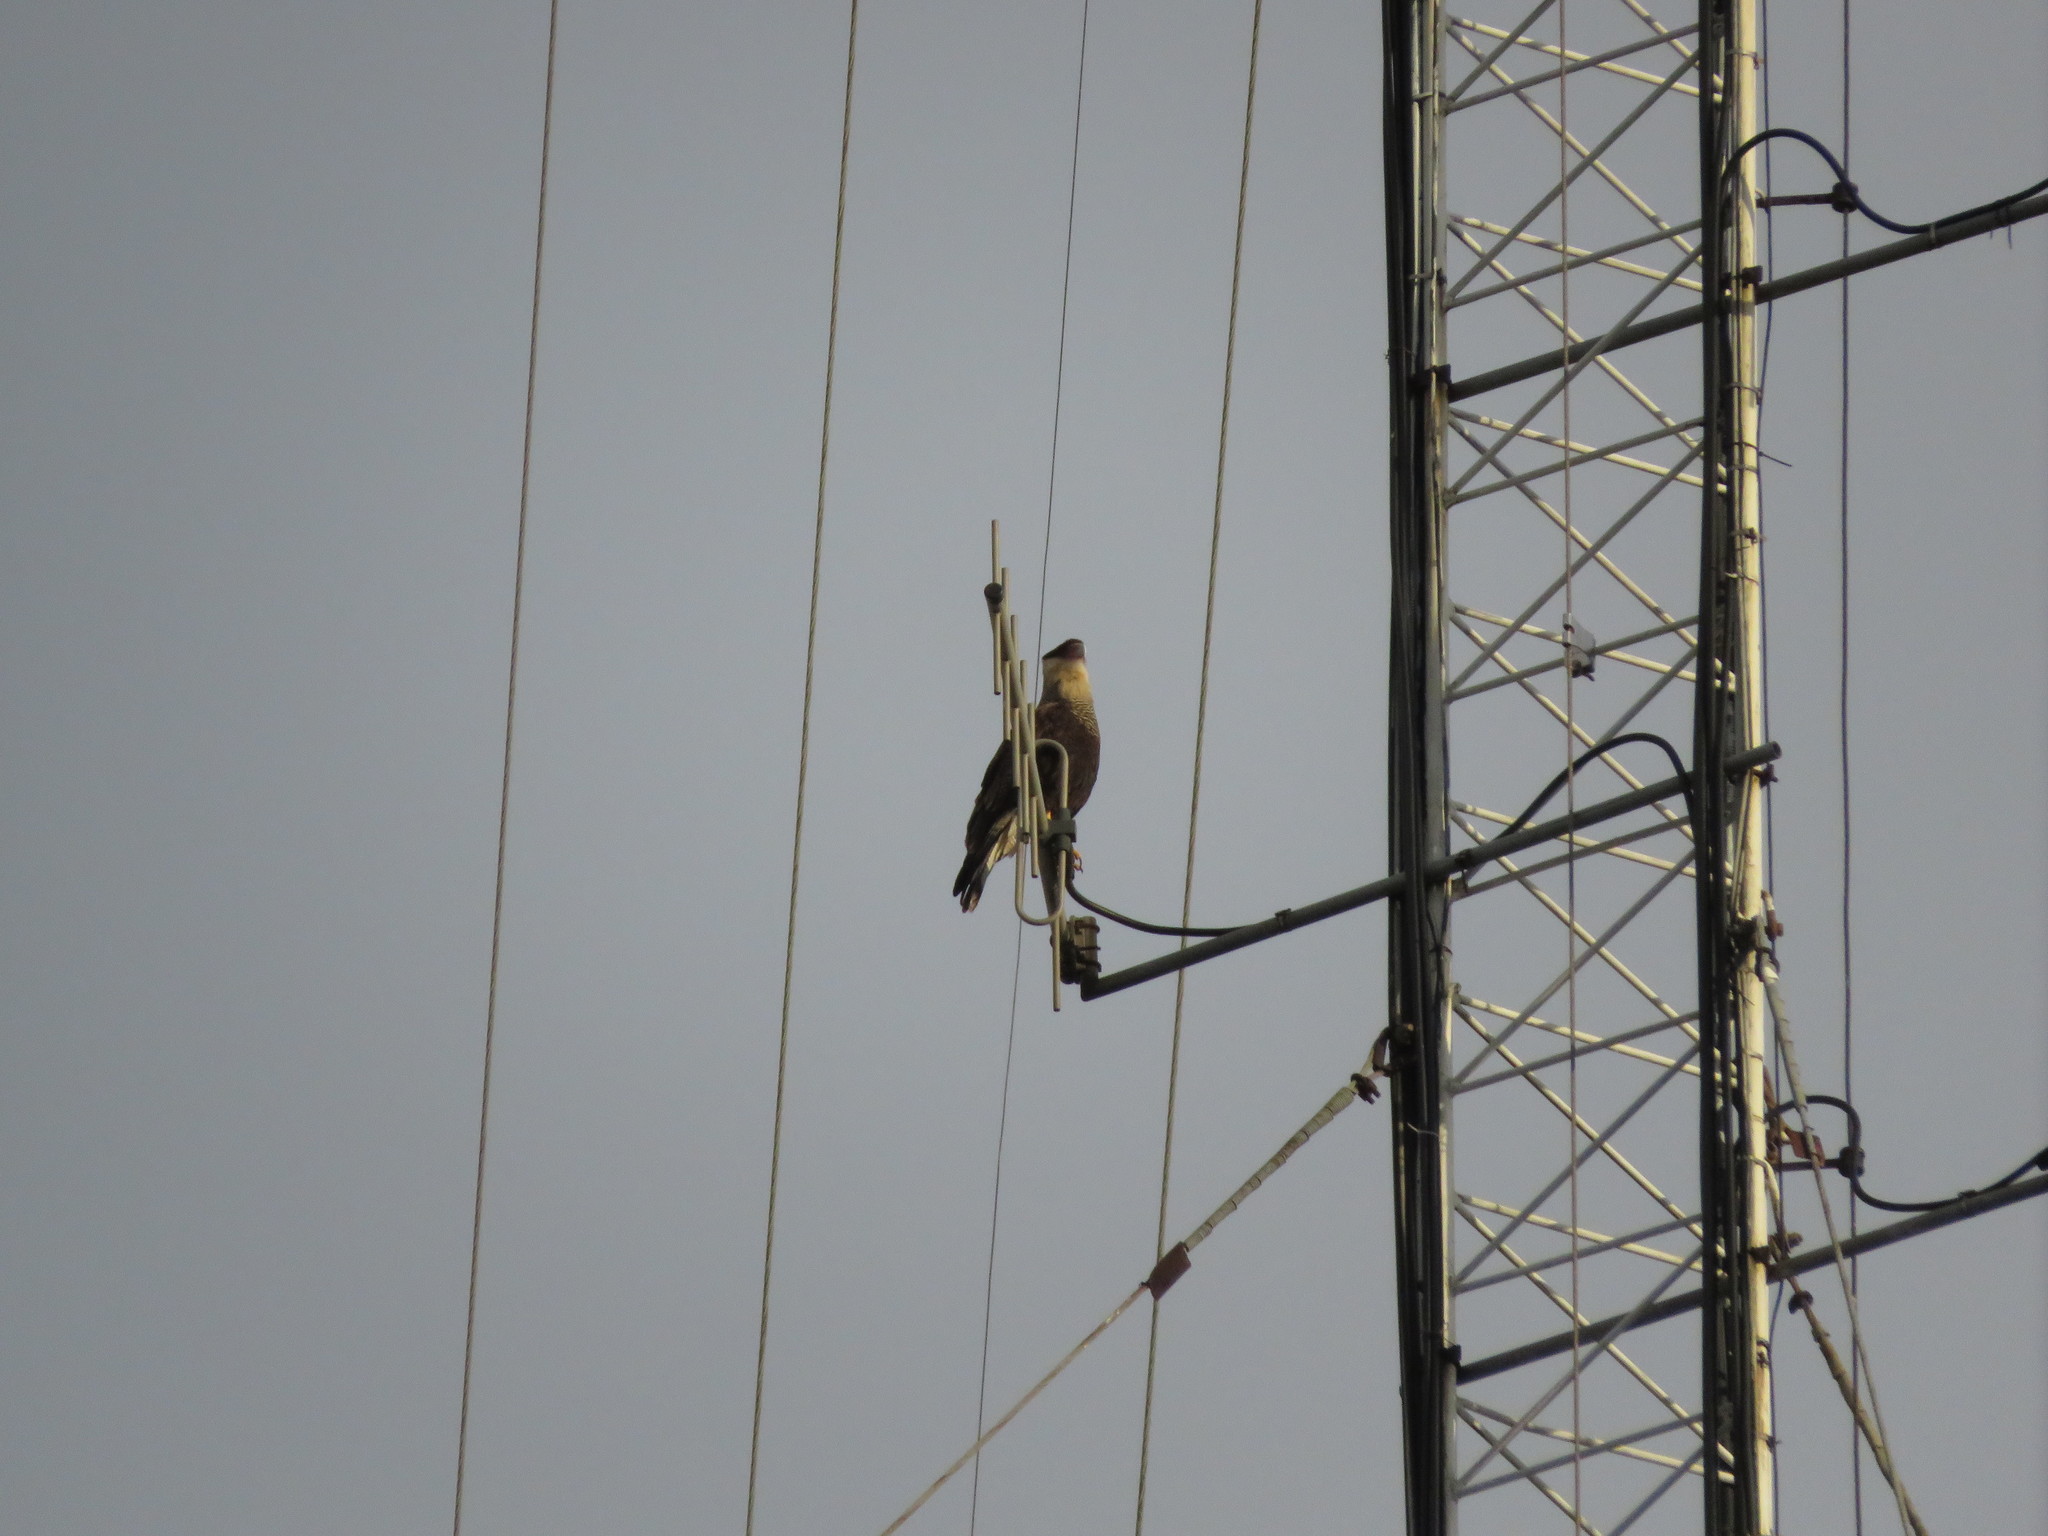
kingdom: Animalia
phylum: Chordata
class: Aves
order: Falconiformes
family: Falconidae
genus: Caracara
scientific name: Caracara plancus
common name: Southern caracara
